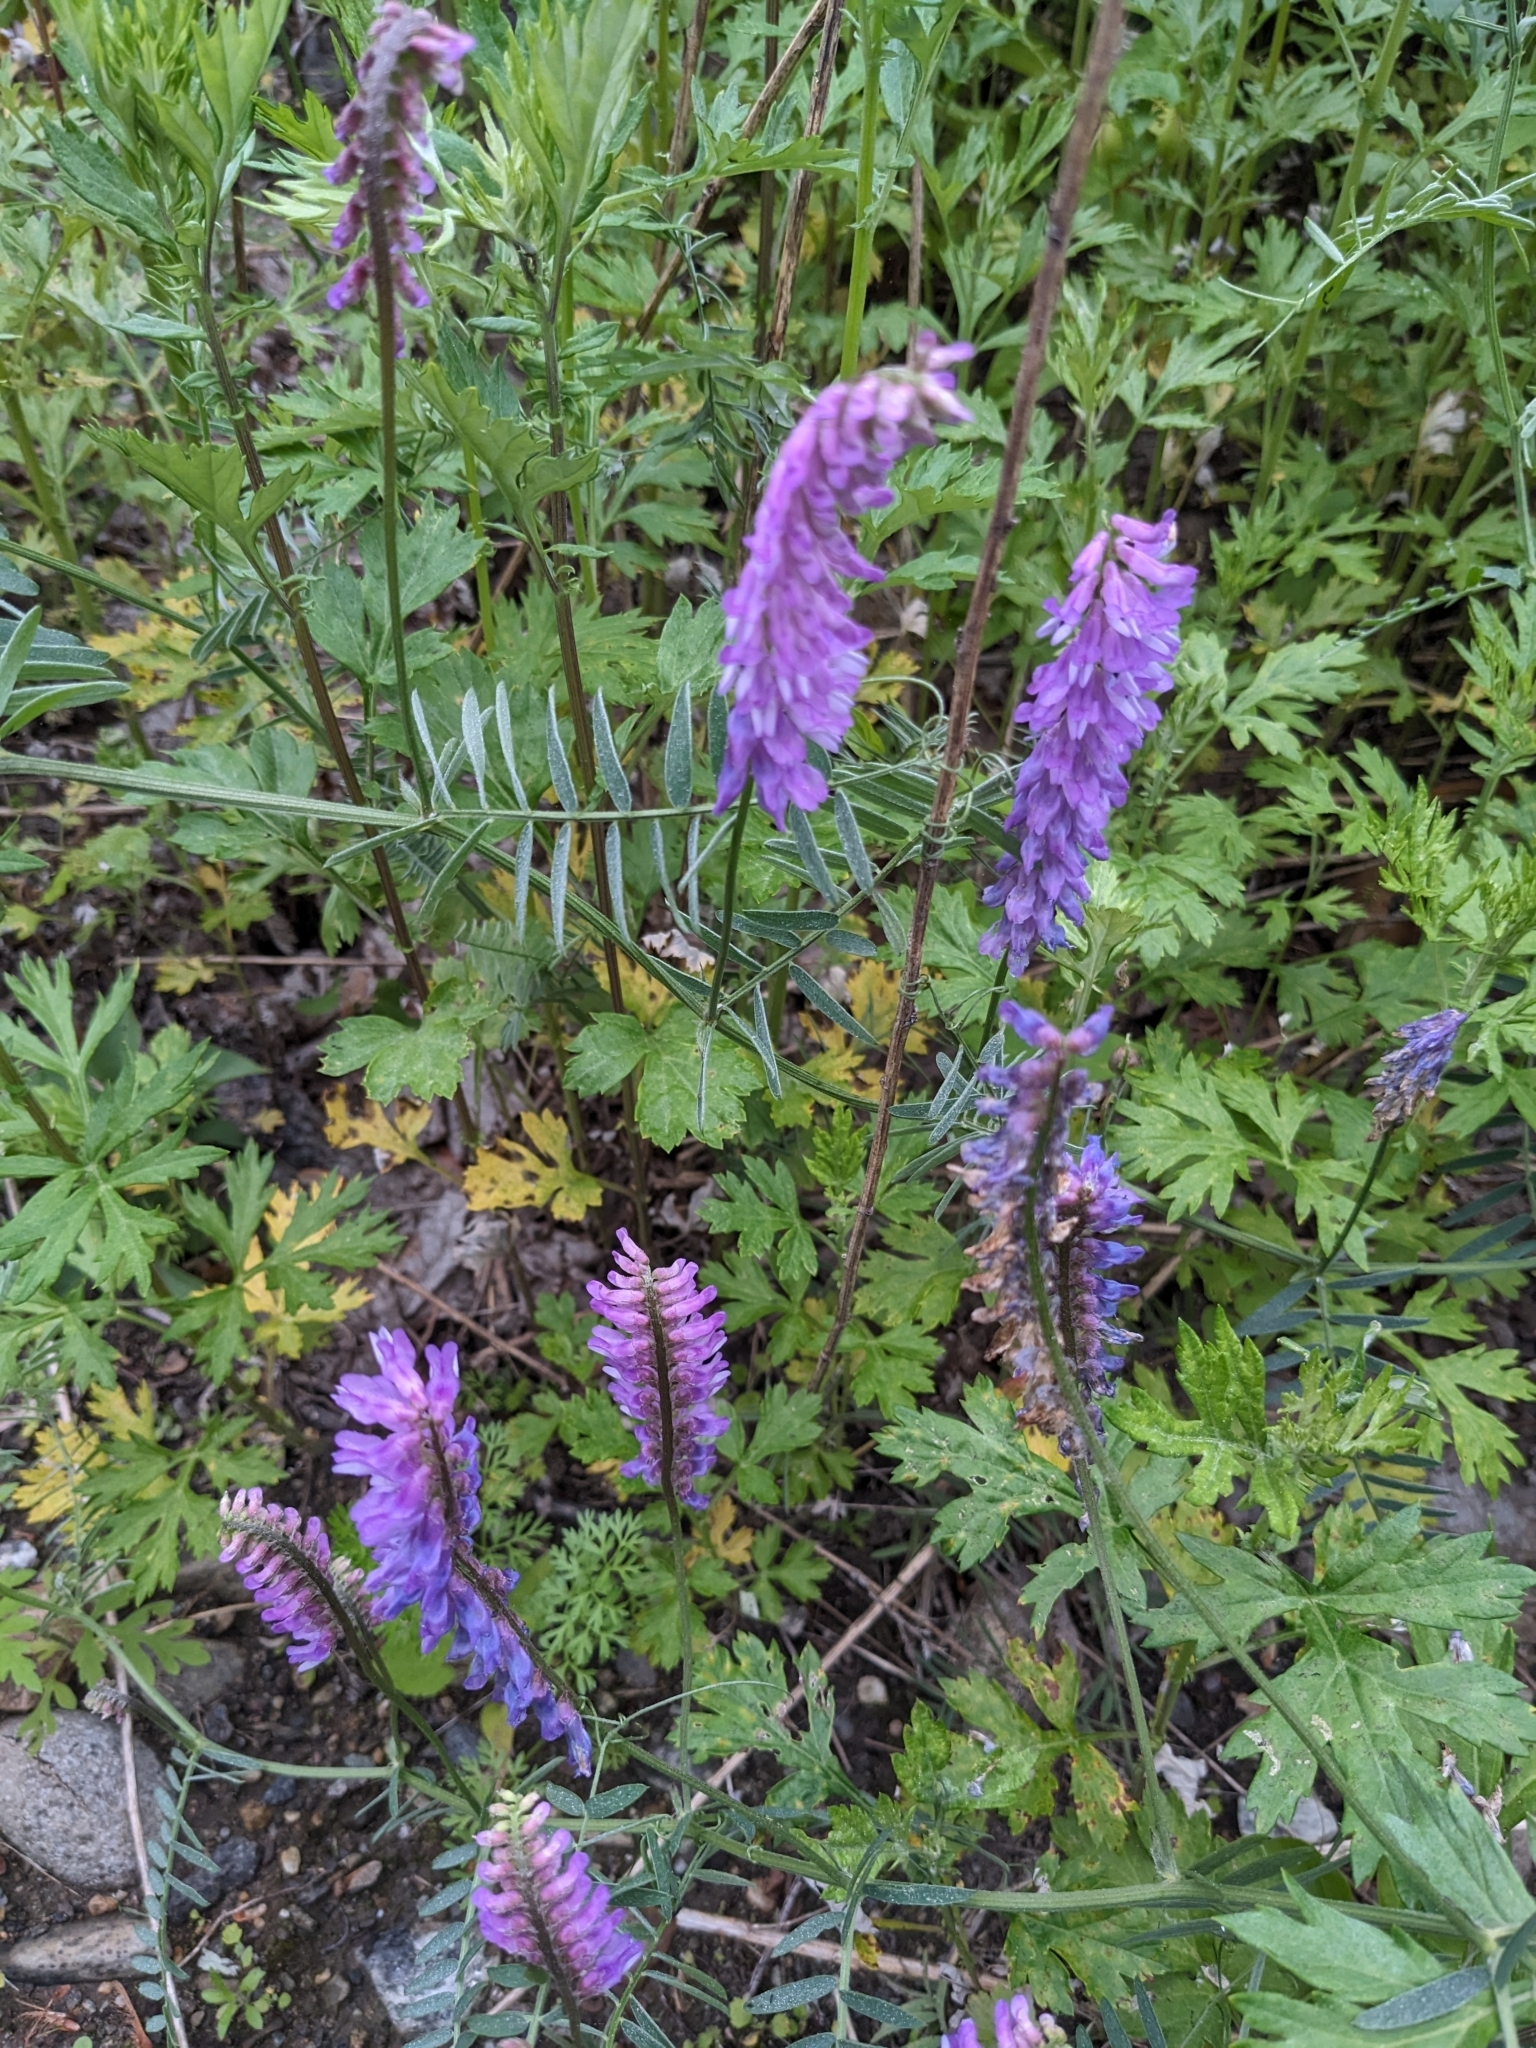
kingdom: Plantae
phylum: Tracheophyta
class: Magnoliopsida
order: Fabales
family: Fabaceae
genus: Vicia
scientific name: Vicia cracca
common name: Bird vetch
